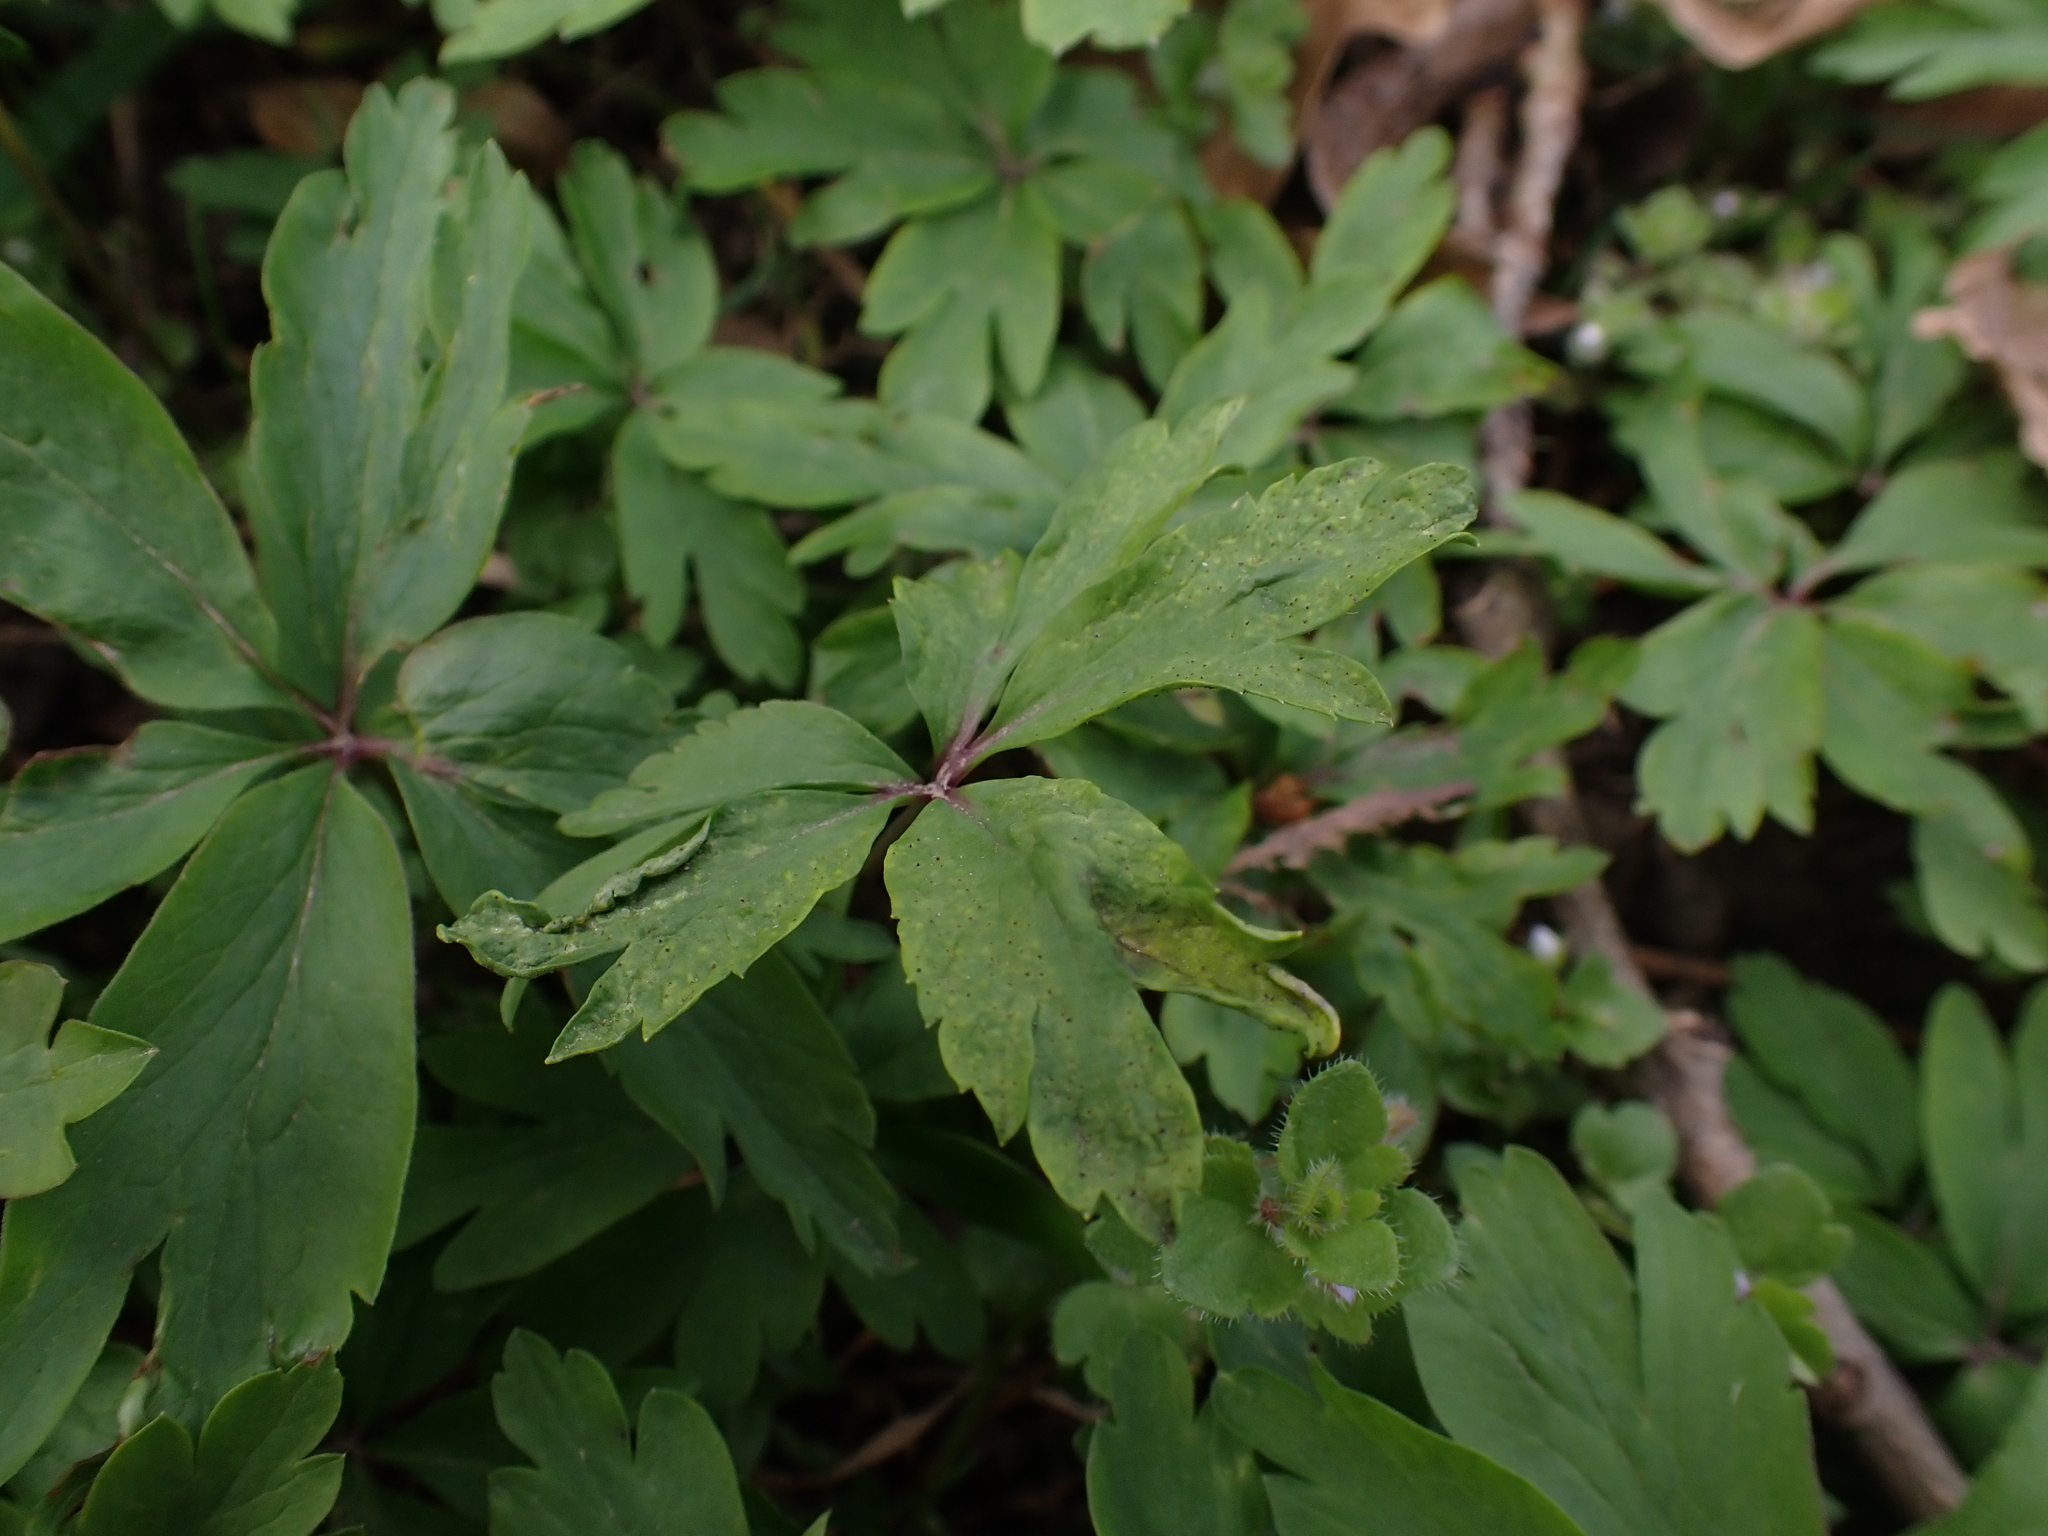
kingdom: Fungi
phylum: Basidiomycota
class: Pucciniomycetes
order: Pucciniales
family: Tranzscheliaceae
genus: Tranzschelia
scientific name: Tranzschelia pruni-spinosae
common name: Blackthorn rust
